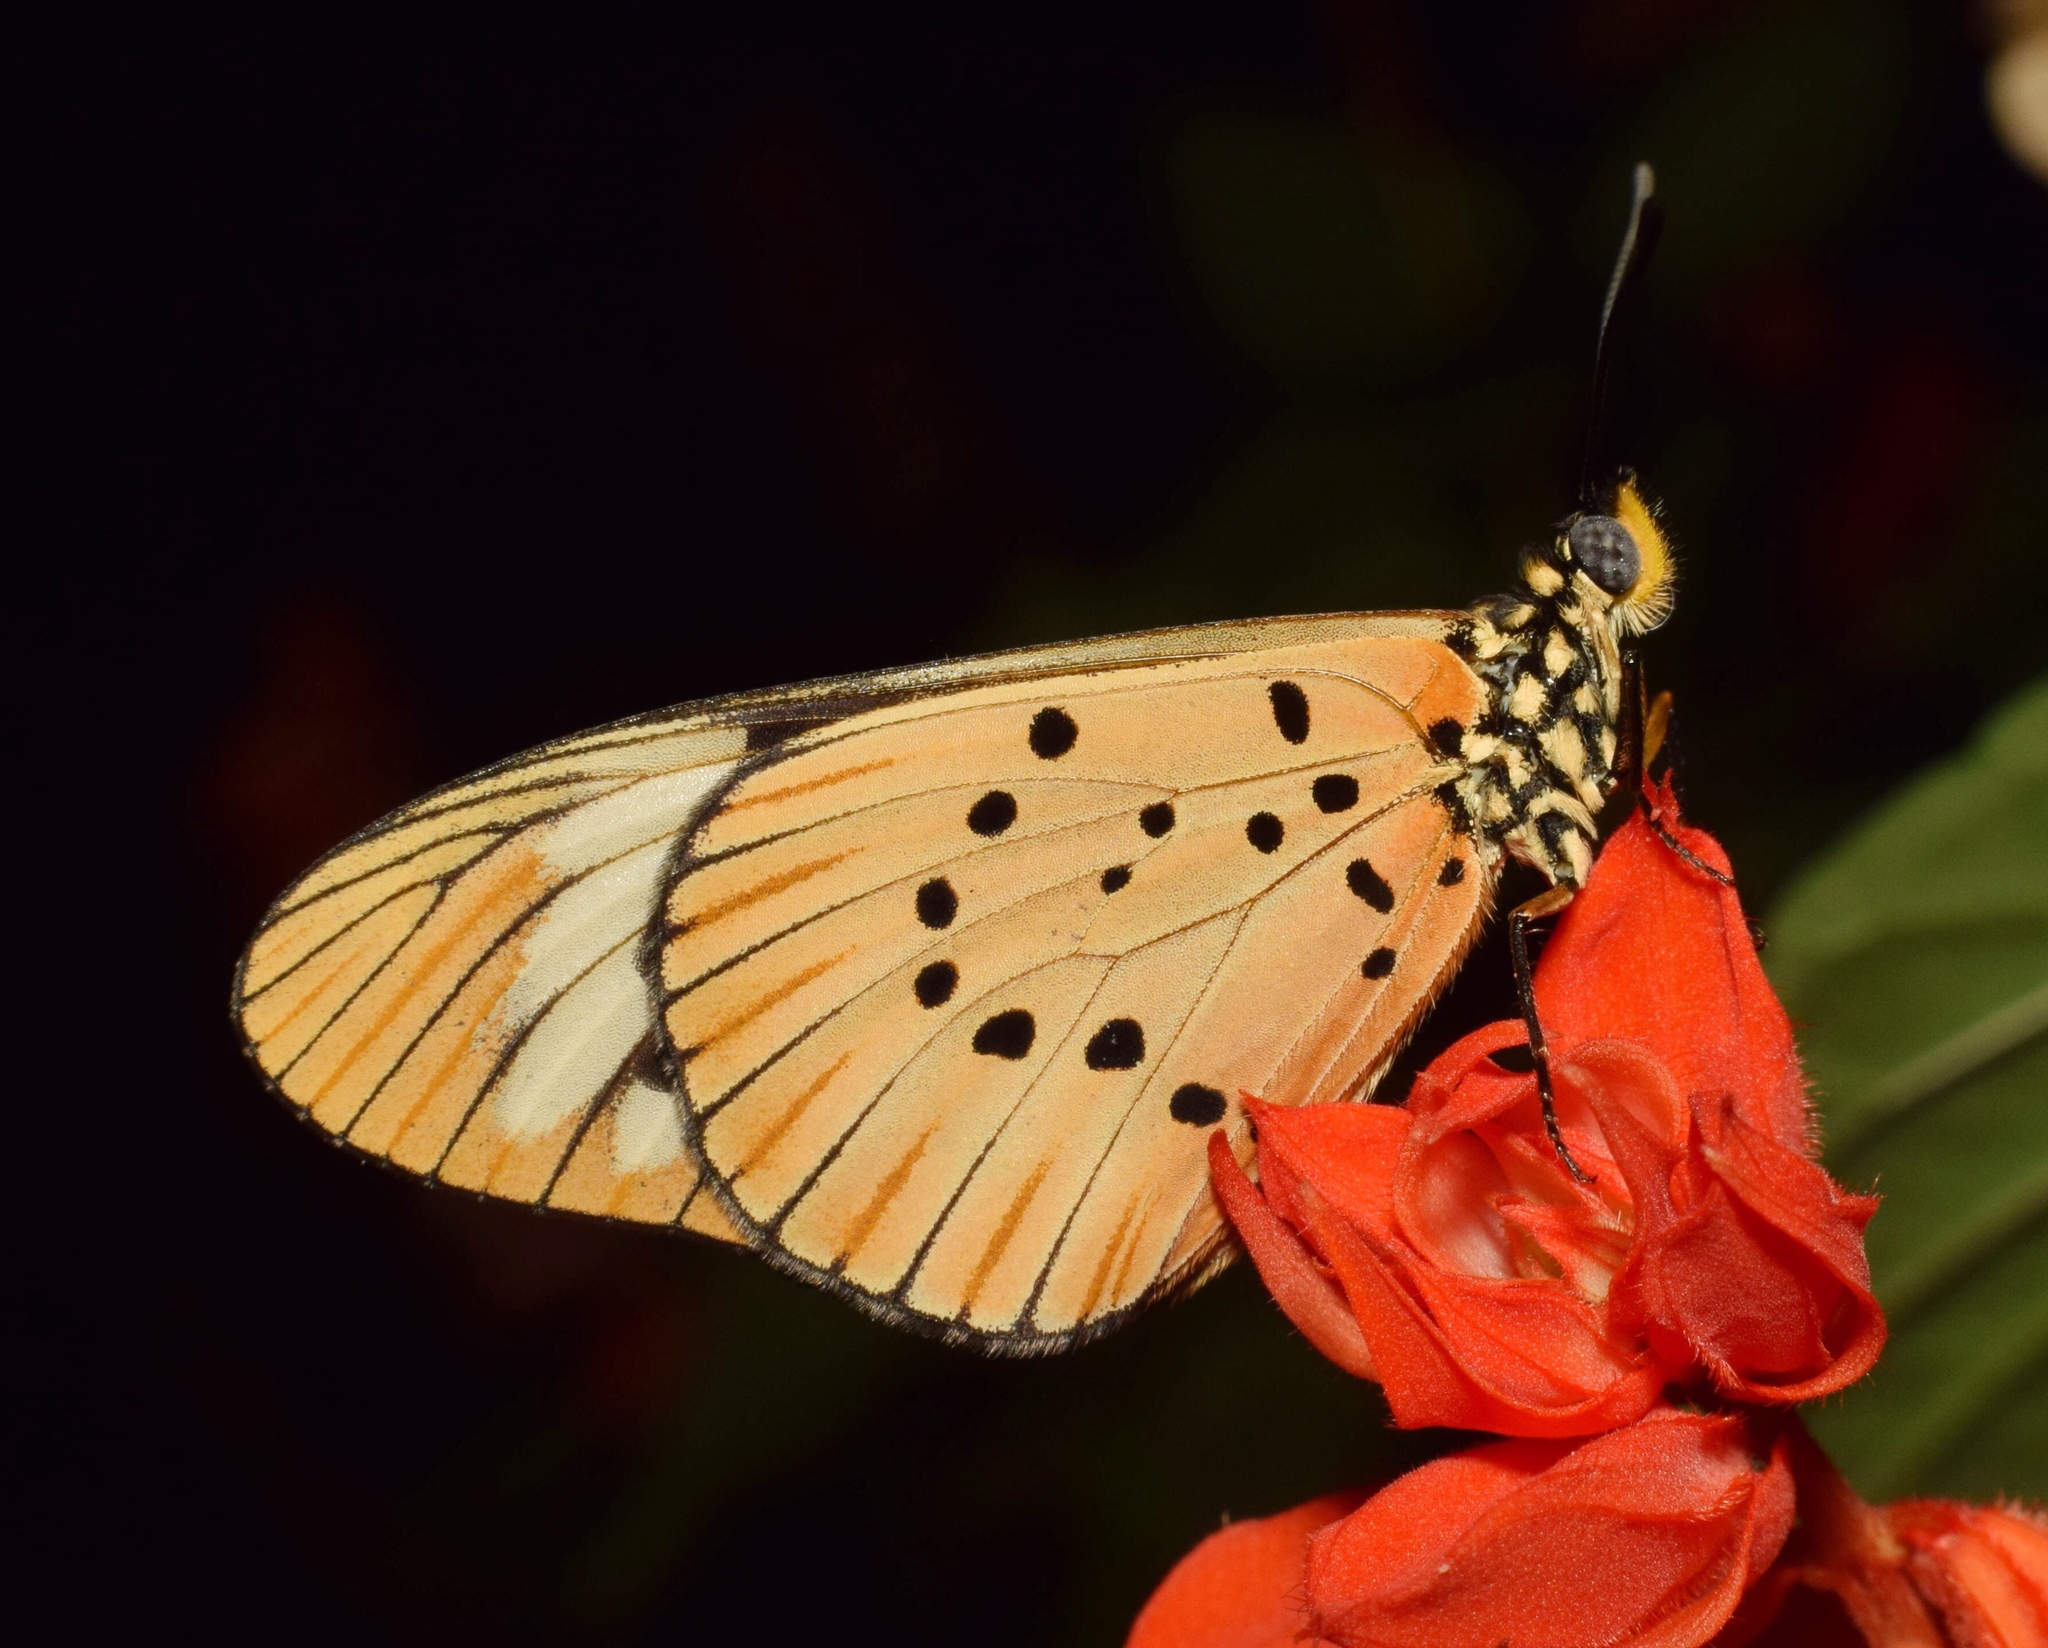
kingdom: Animalia
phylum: Arthropoda
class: Insecta
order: Lepidoptera
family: Nymphalidae
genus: Acraea
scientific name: Acraea Telchinia encedon
